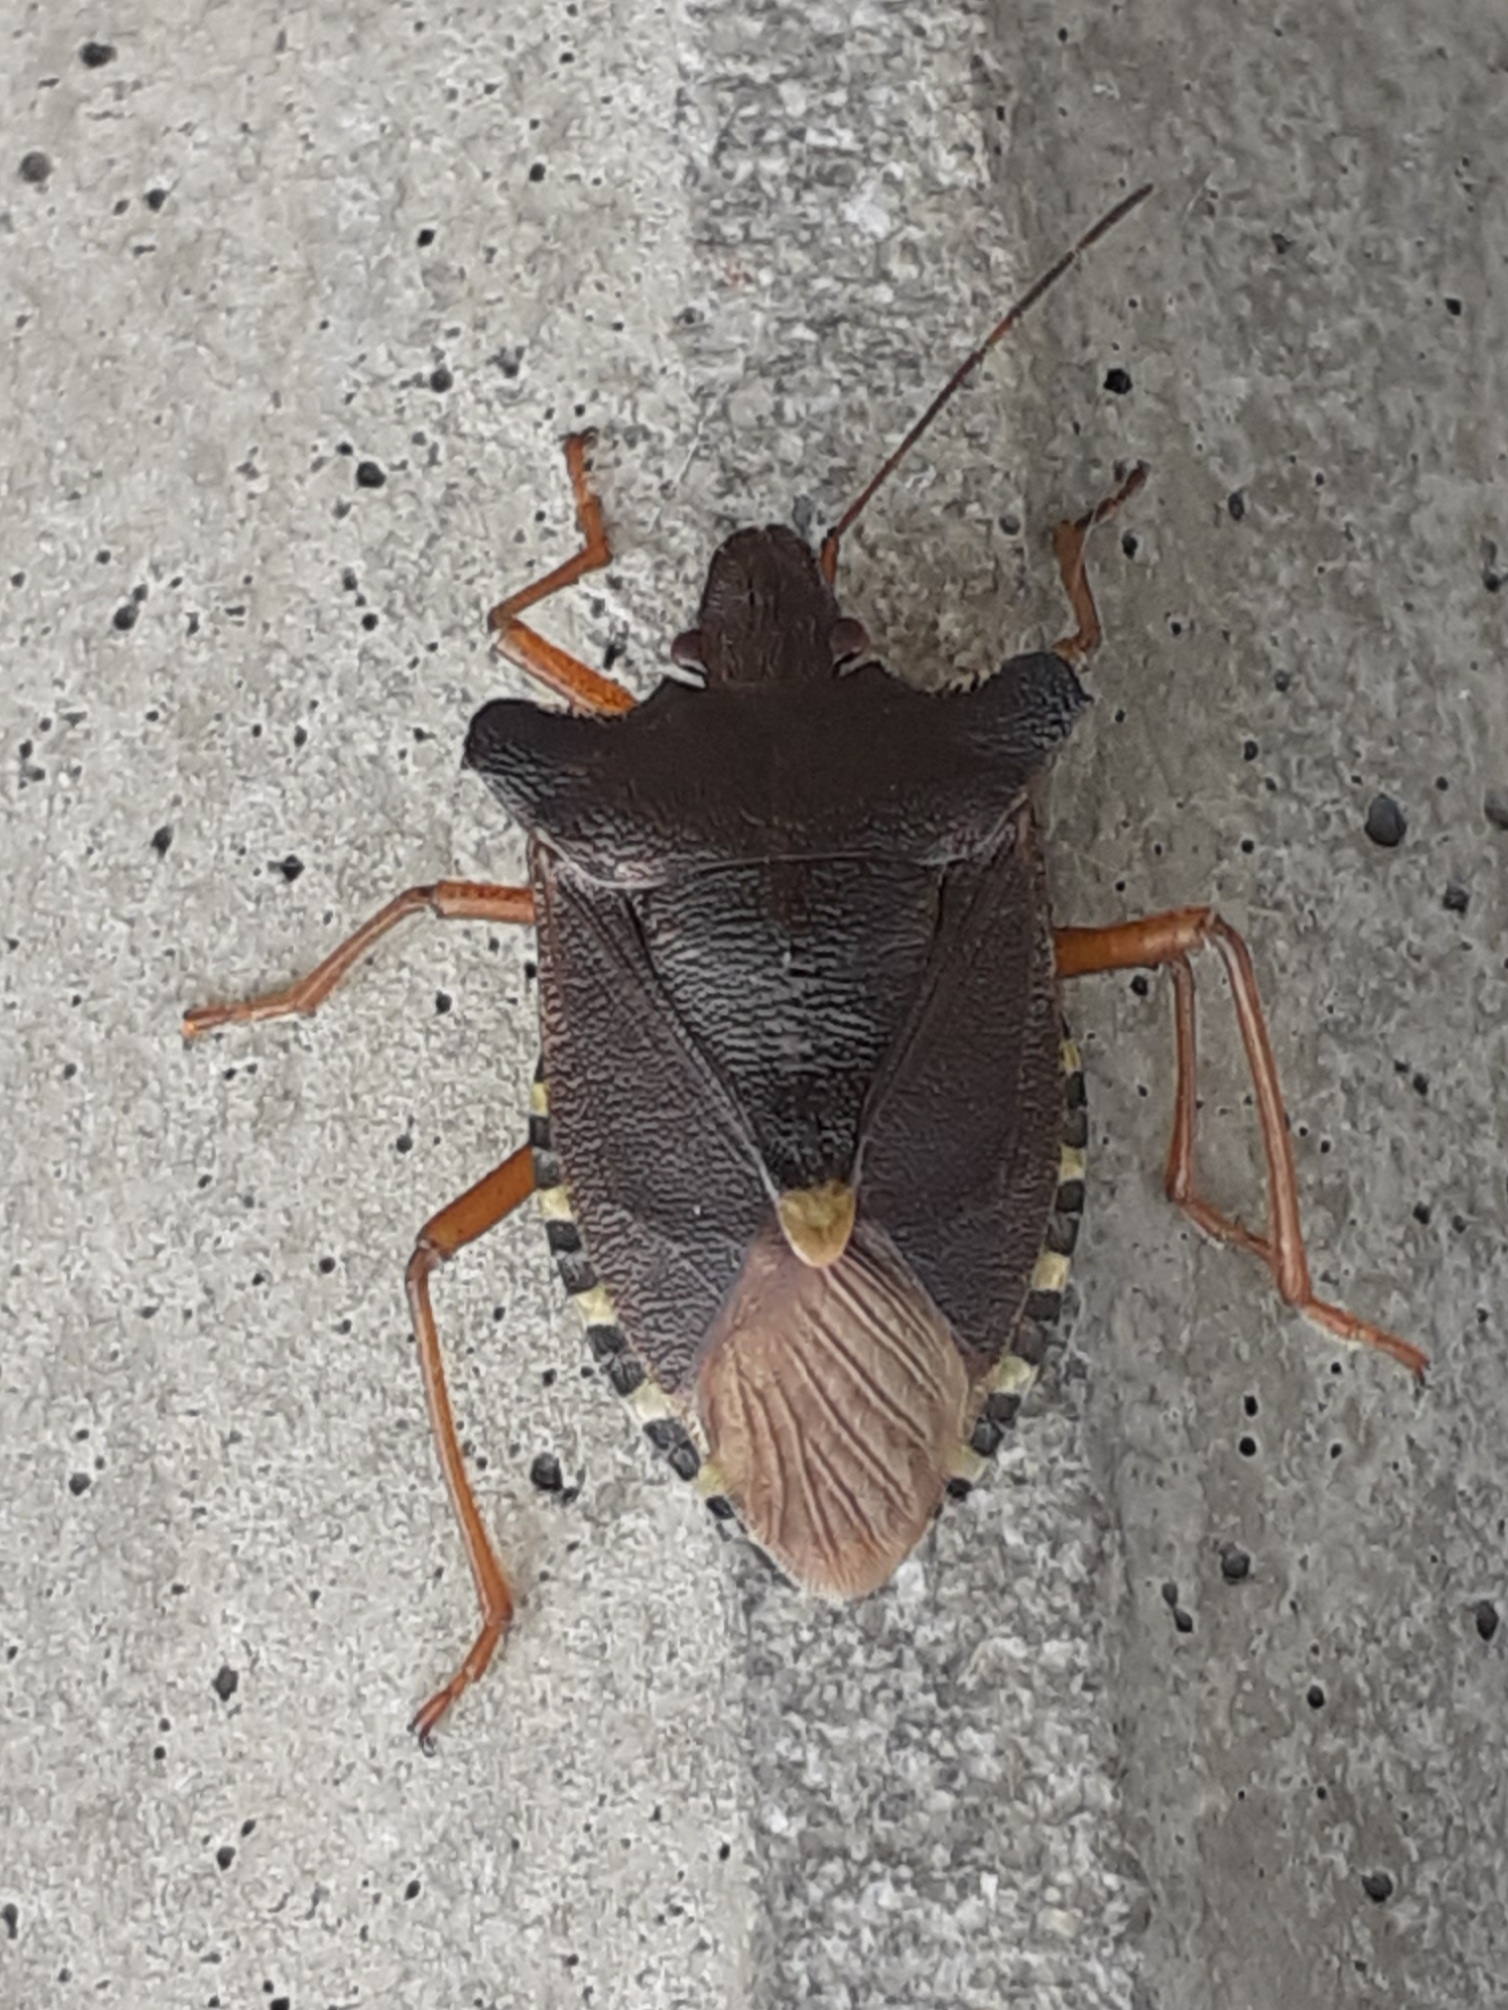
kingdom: Animalia
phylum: Arthropoda
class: Insecta
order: Hemiptera
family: Pentatomidae
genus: Pentatoma
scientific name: Pentatoma rufipes
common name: Forest bug
